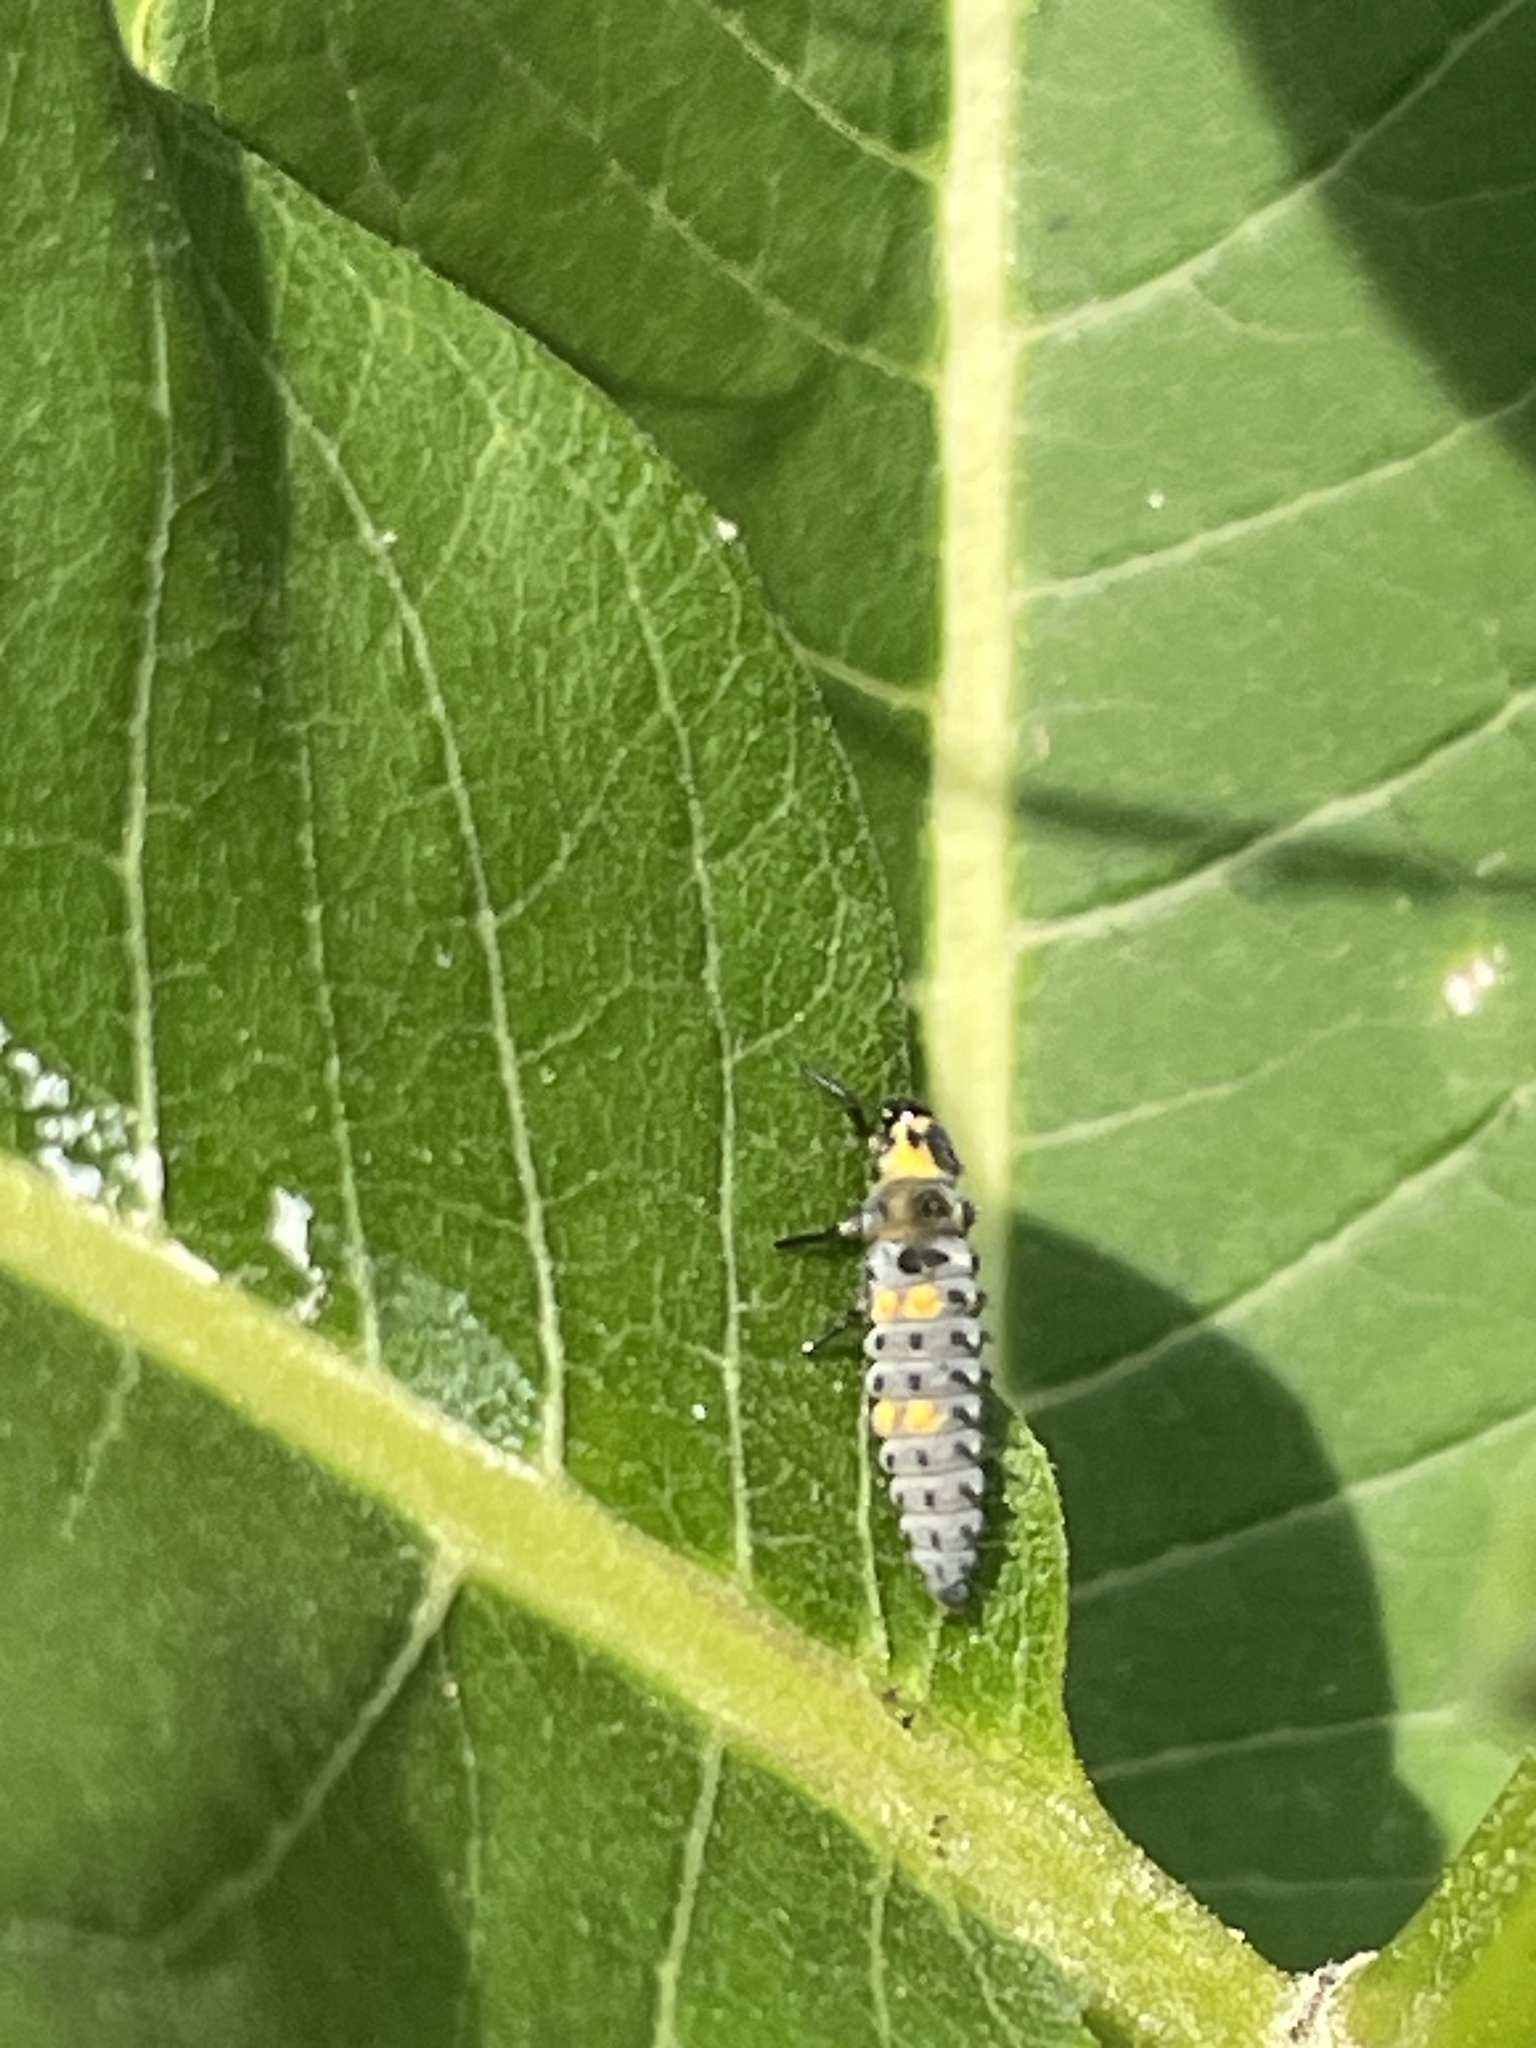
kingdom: Animalia
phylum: Arthropoda
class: Insecta
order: Coleoptera
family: Coccinellidae
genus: Coccinella
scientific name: Coccinella septempunctata
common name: Sevenspotted lady beetle
